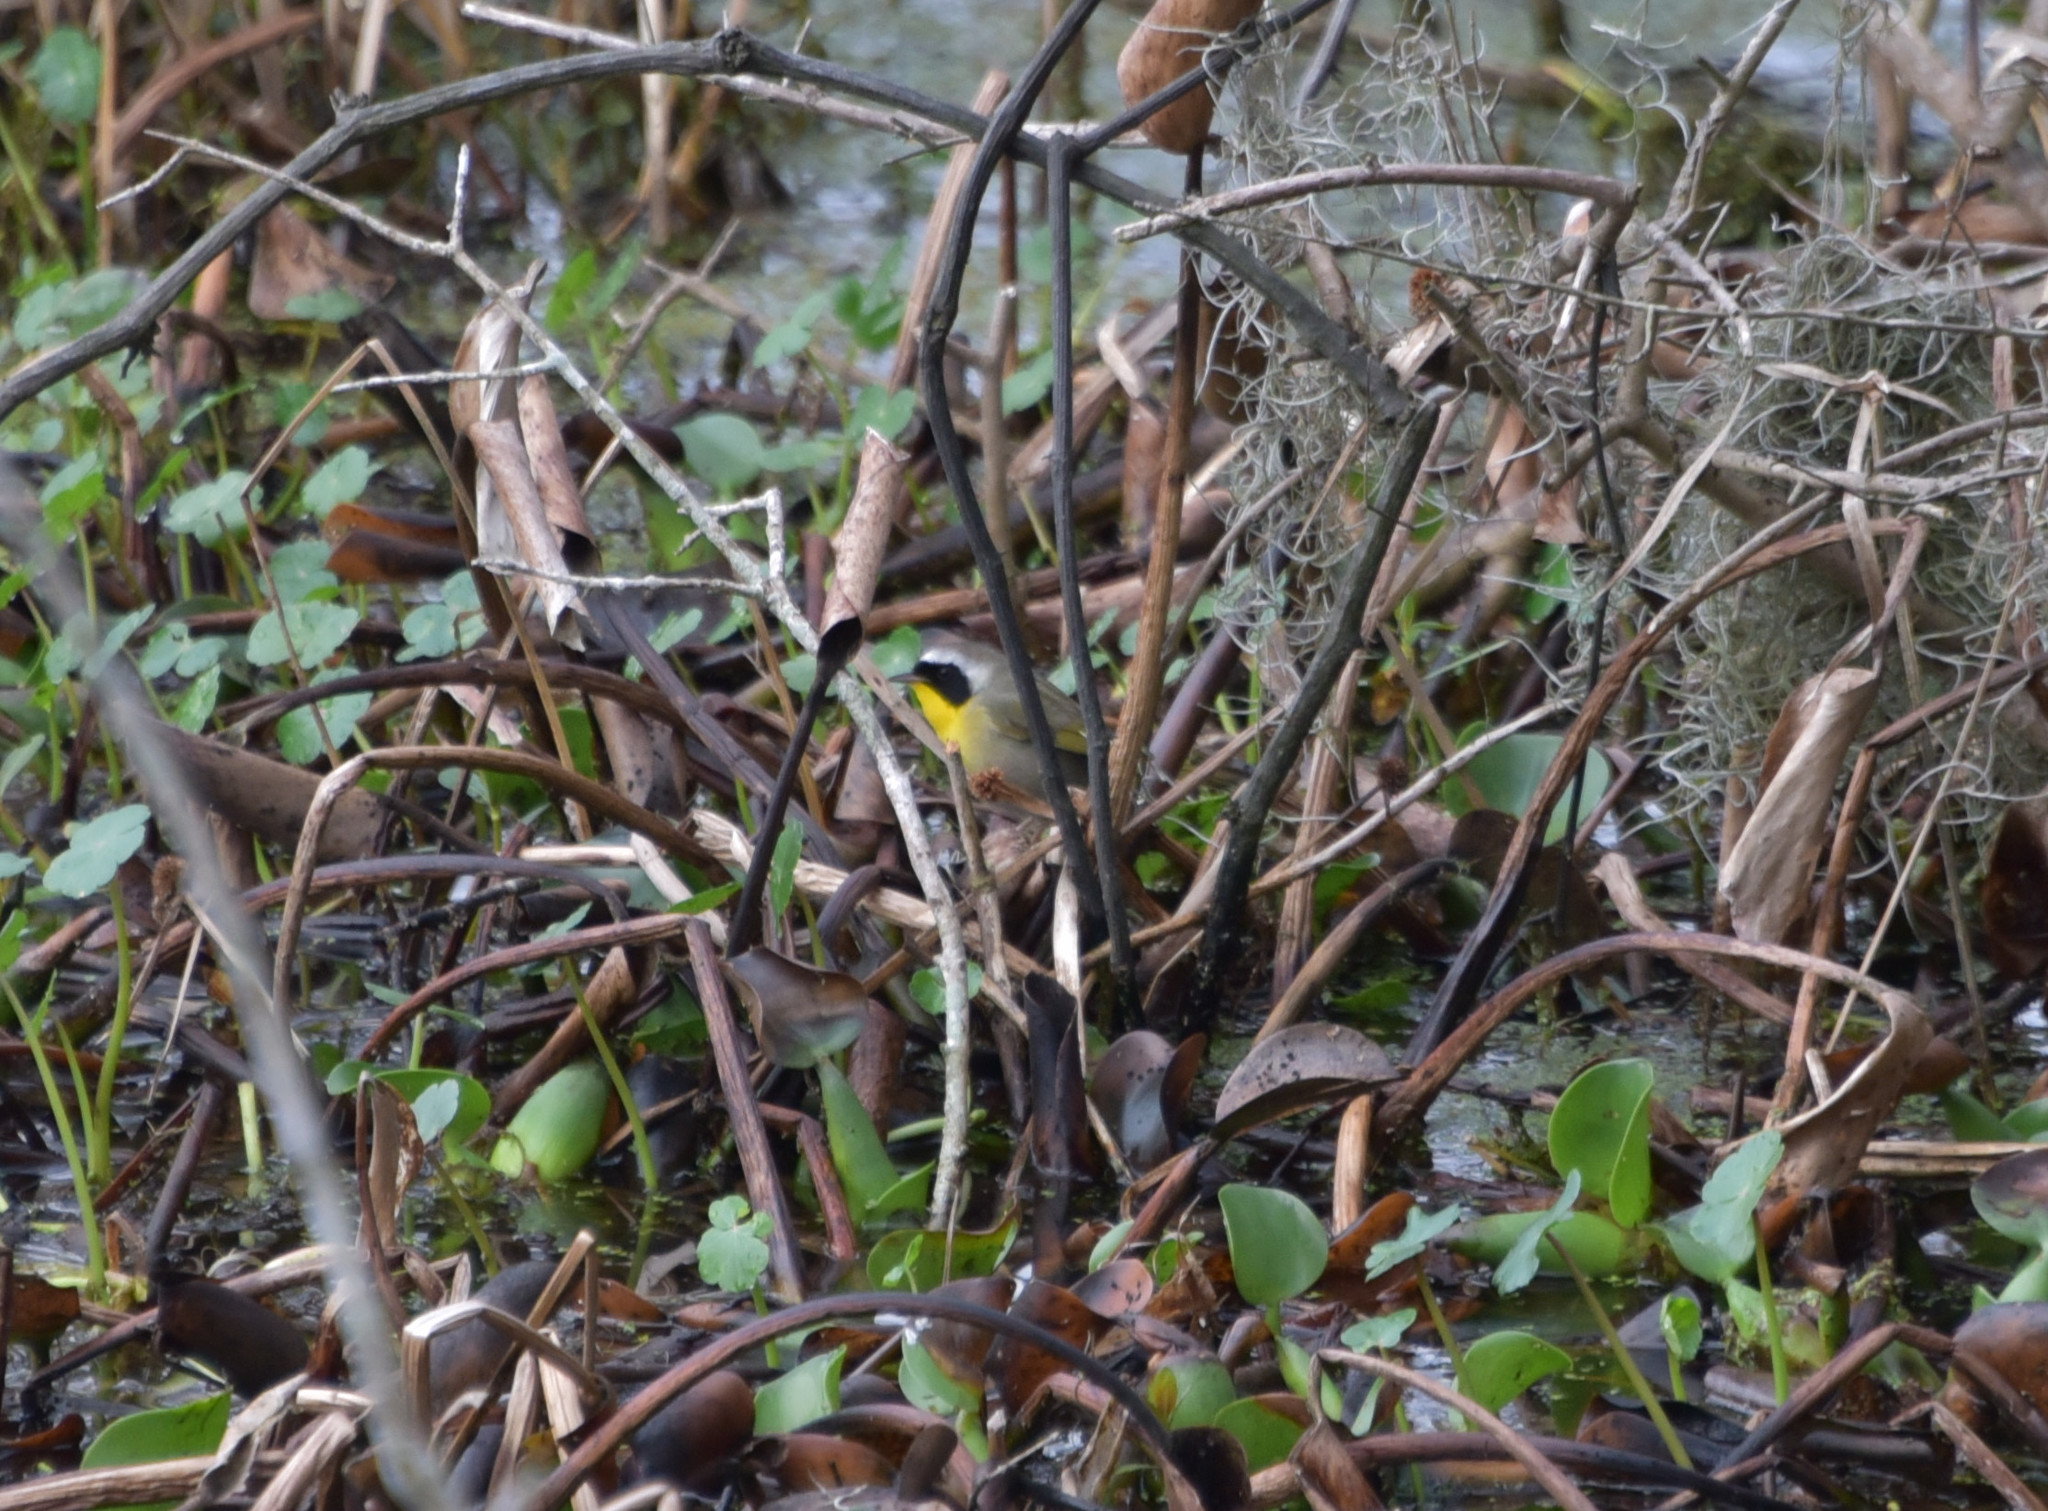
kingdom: Animalia
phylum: Chordata
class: Aves
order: Passeriformes
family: Parulidae
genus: Geothlypis
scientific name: Geothlypis trichas
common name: Common yellowthroat
